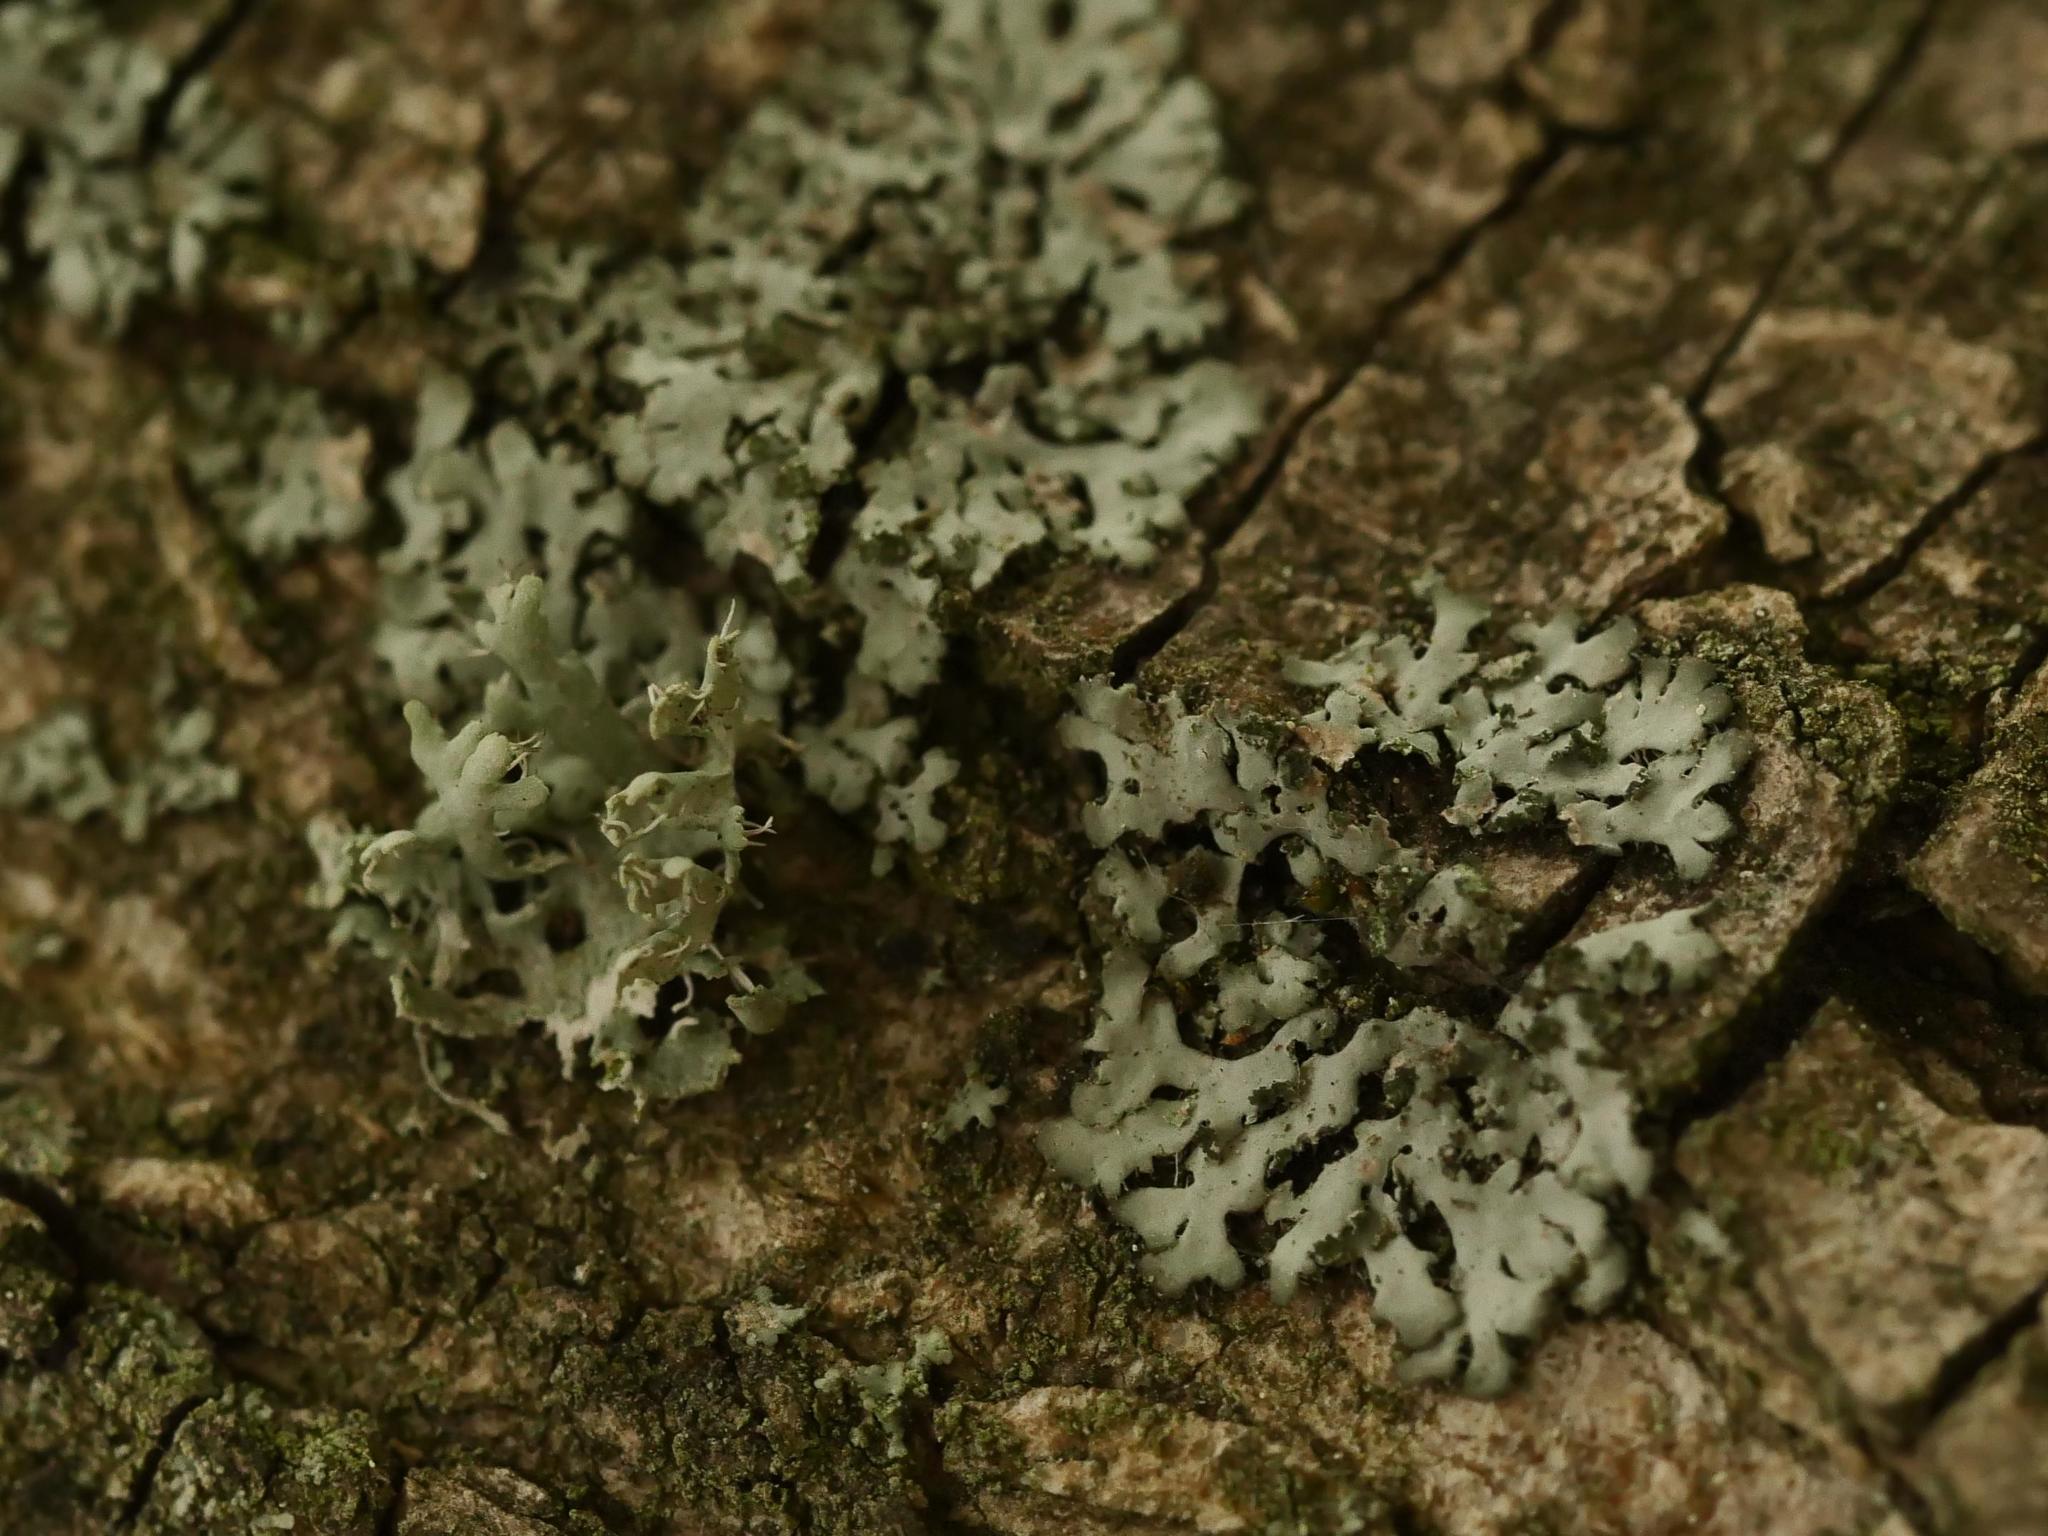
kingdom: Fungi
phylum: Ascomycota
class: Lecanoromycetes
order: Caliciales
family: Physciaceae
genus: Phaeophyscia
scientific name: Phaeophyscia orbicularis
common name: Mealy shadow lichen
